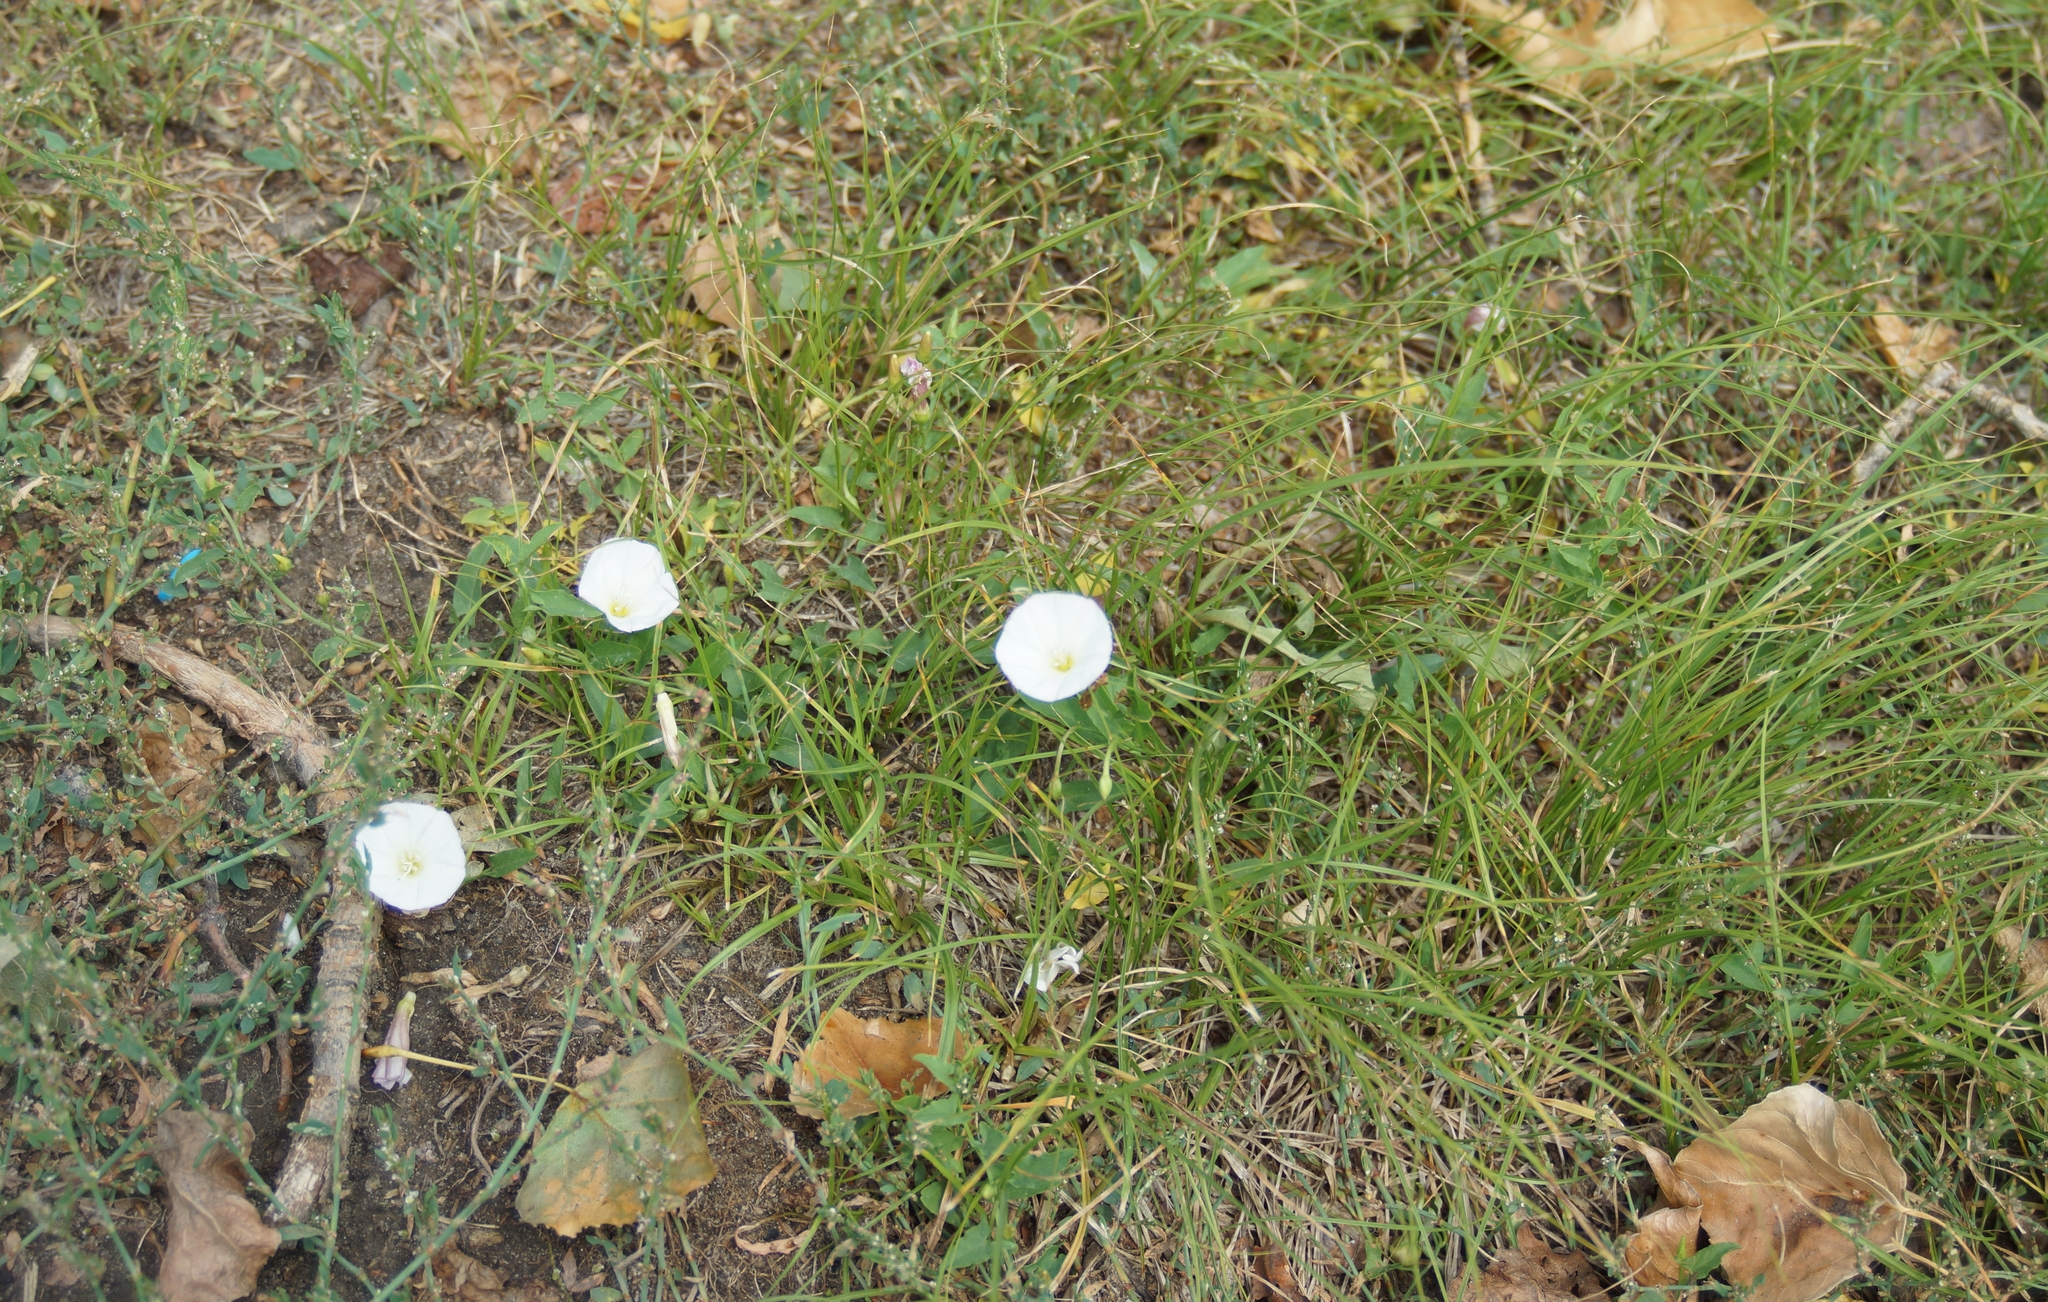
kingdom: Plantae
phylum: Tracheophyta
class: Magnoliopsida
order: Solanales
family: Convolvulaceae
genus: Convolvulus
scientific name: Convolvulus arvensis
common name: Field bindweed
